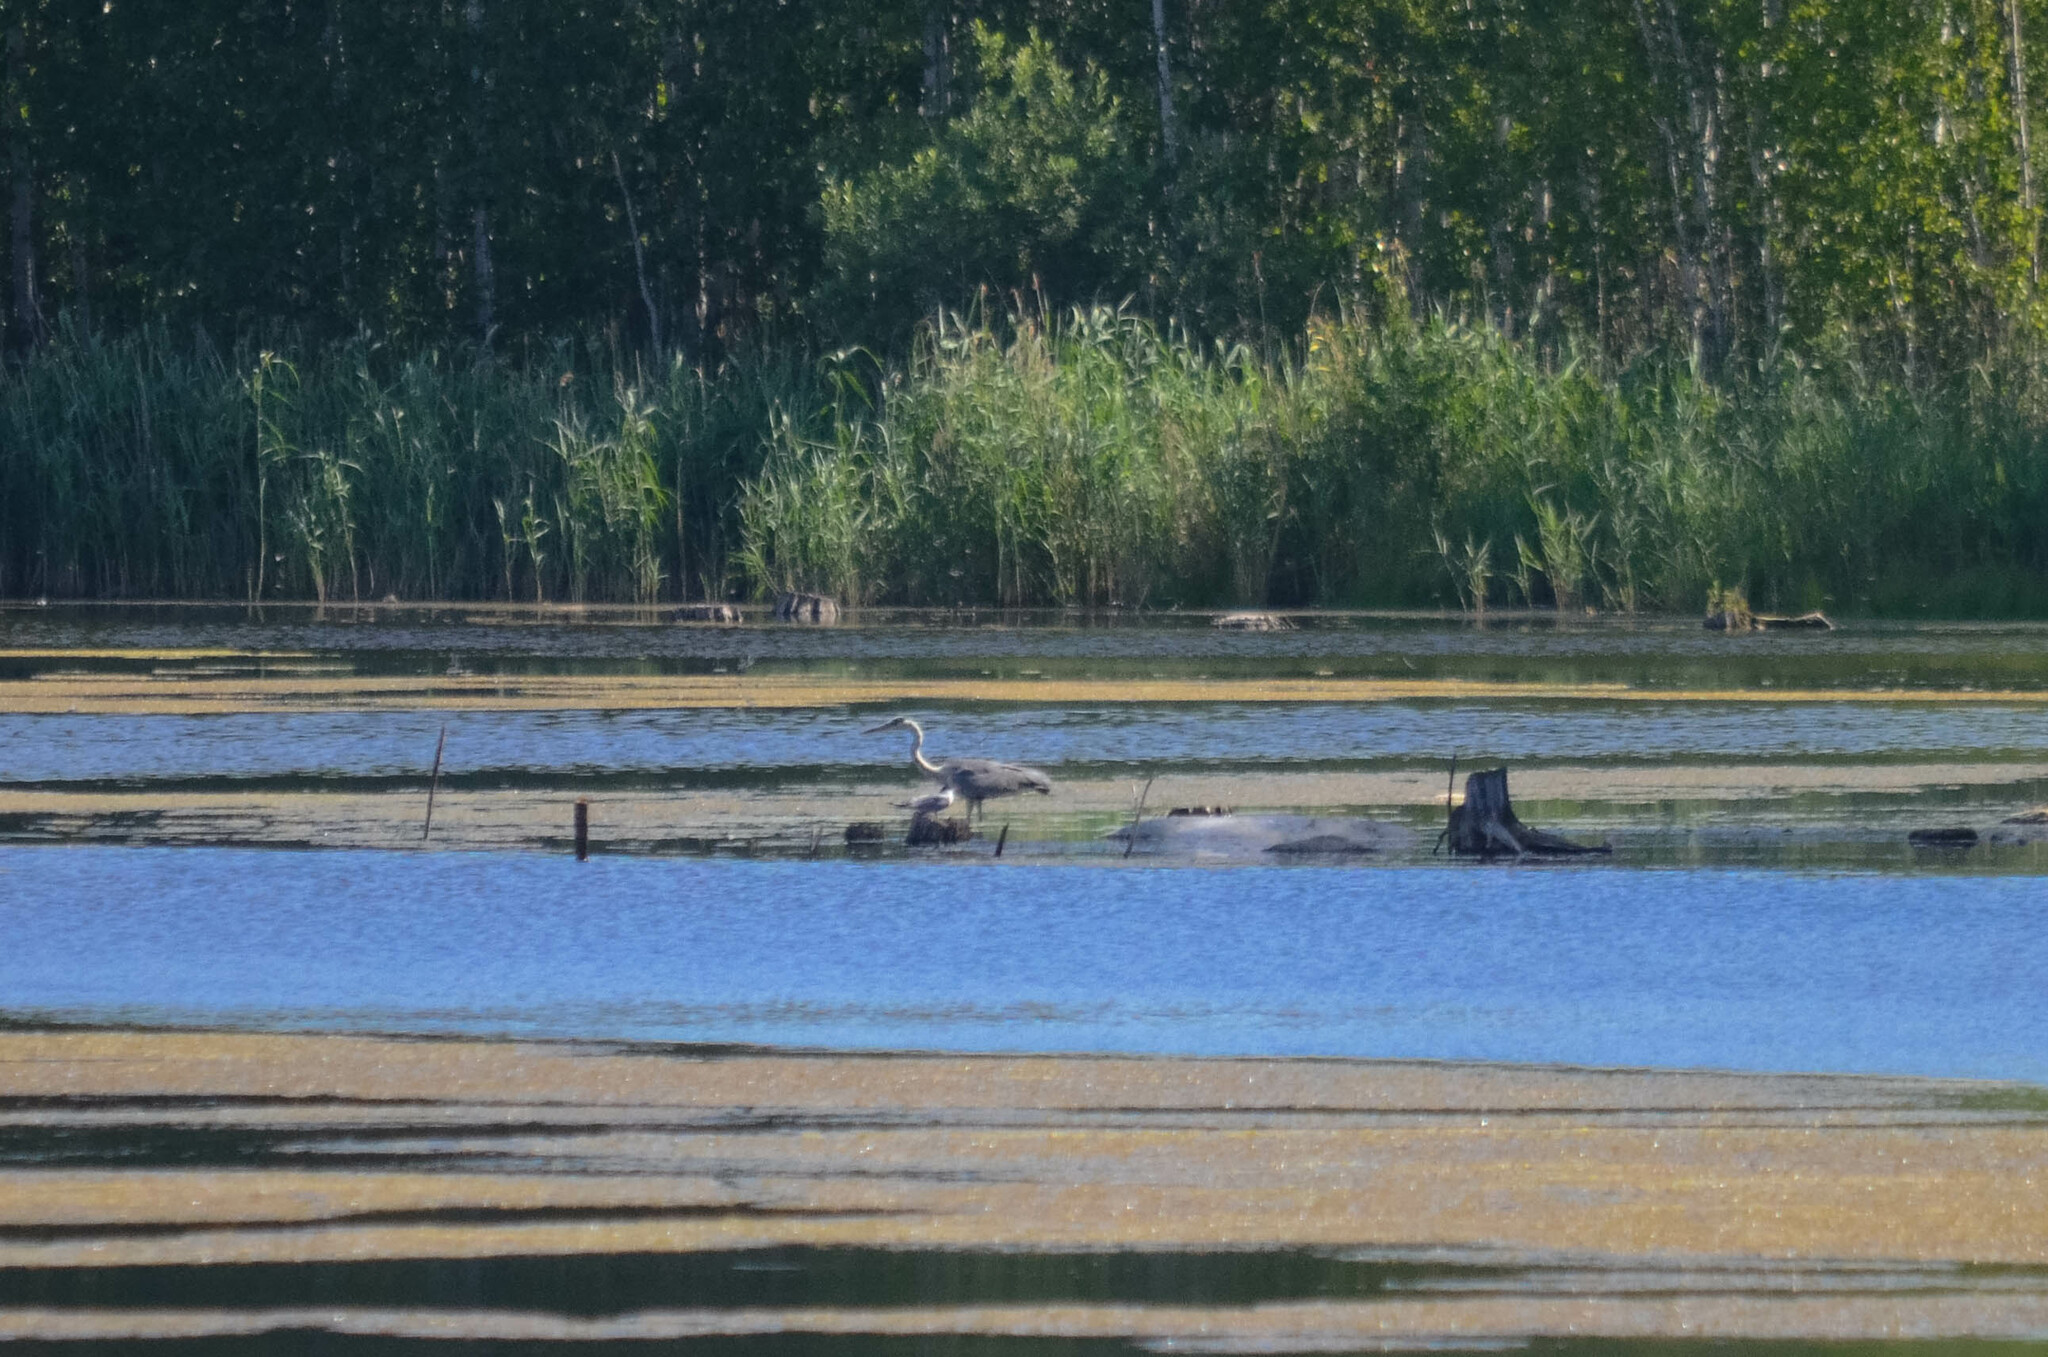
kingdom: Animalia
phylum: Chordata
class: Aves
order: Pelecaniformes
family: Ardeidae
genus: Ardea
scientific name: Ardea cinerea
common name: Grey heron
